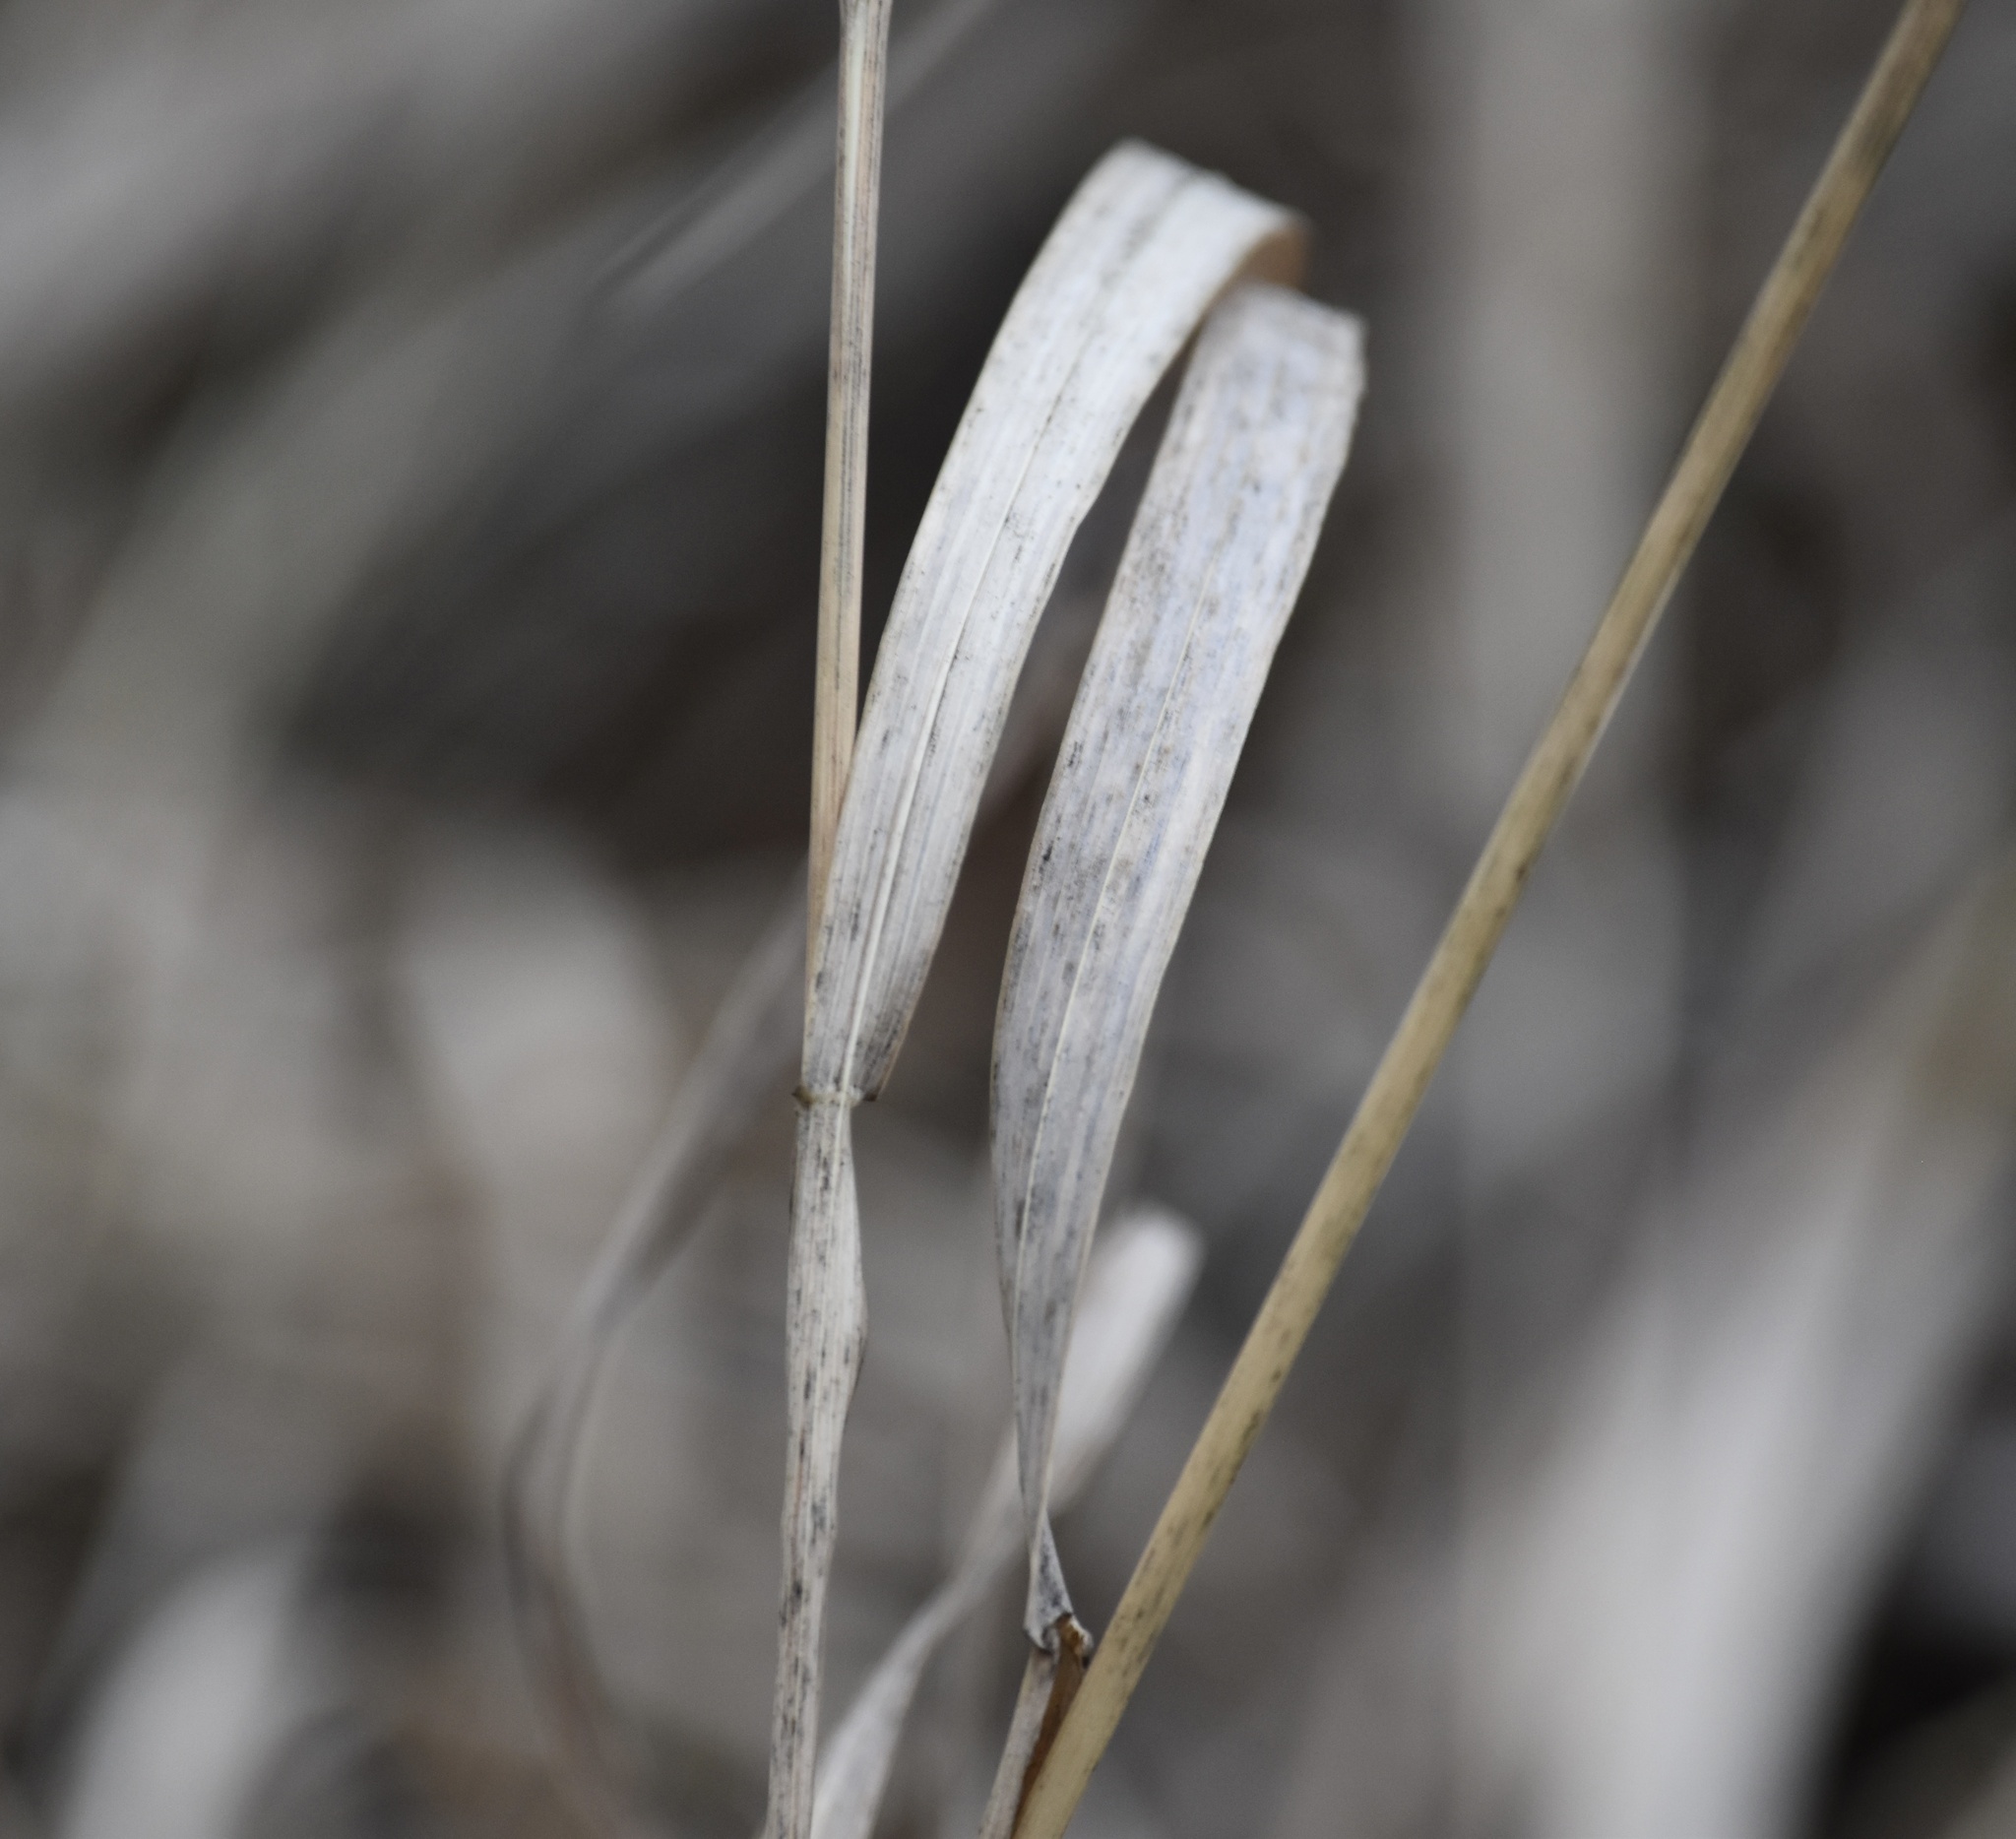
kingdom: Plantae
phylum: Tracheophyta
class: Liliopsida
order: Poales
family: Poaceae
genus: Bromus
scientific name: Bromus inermis
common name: Smooth brome
